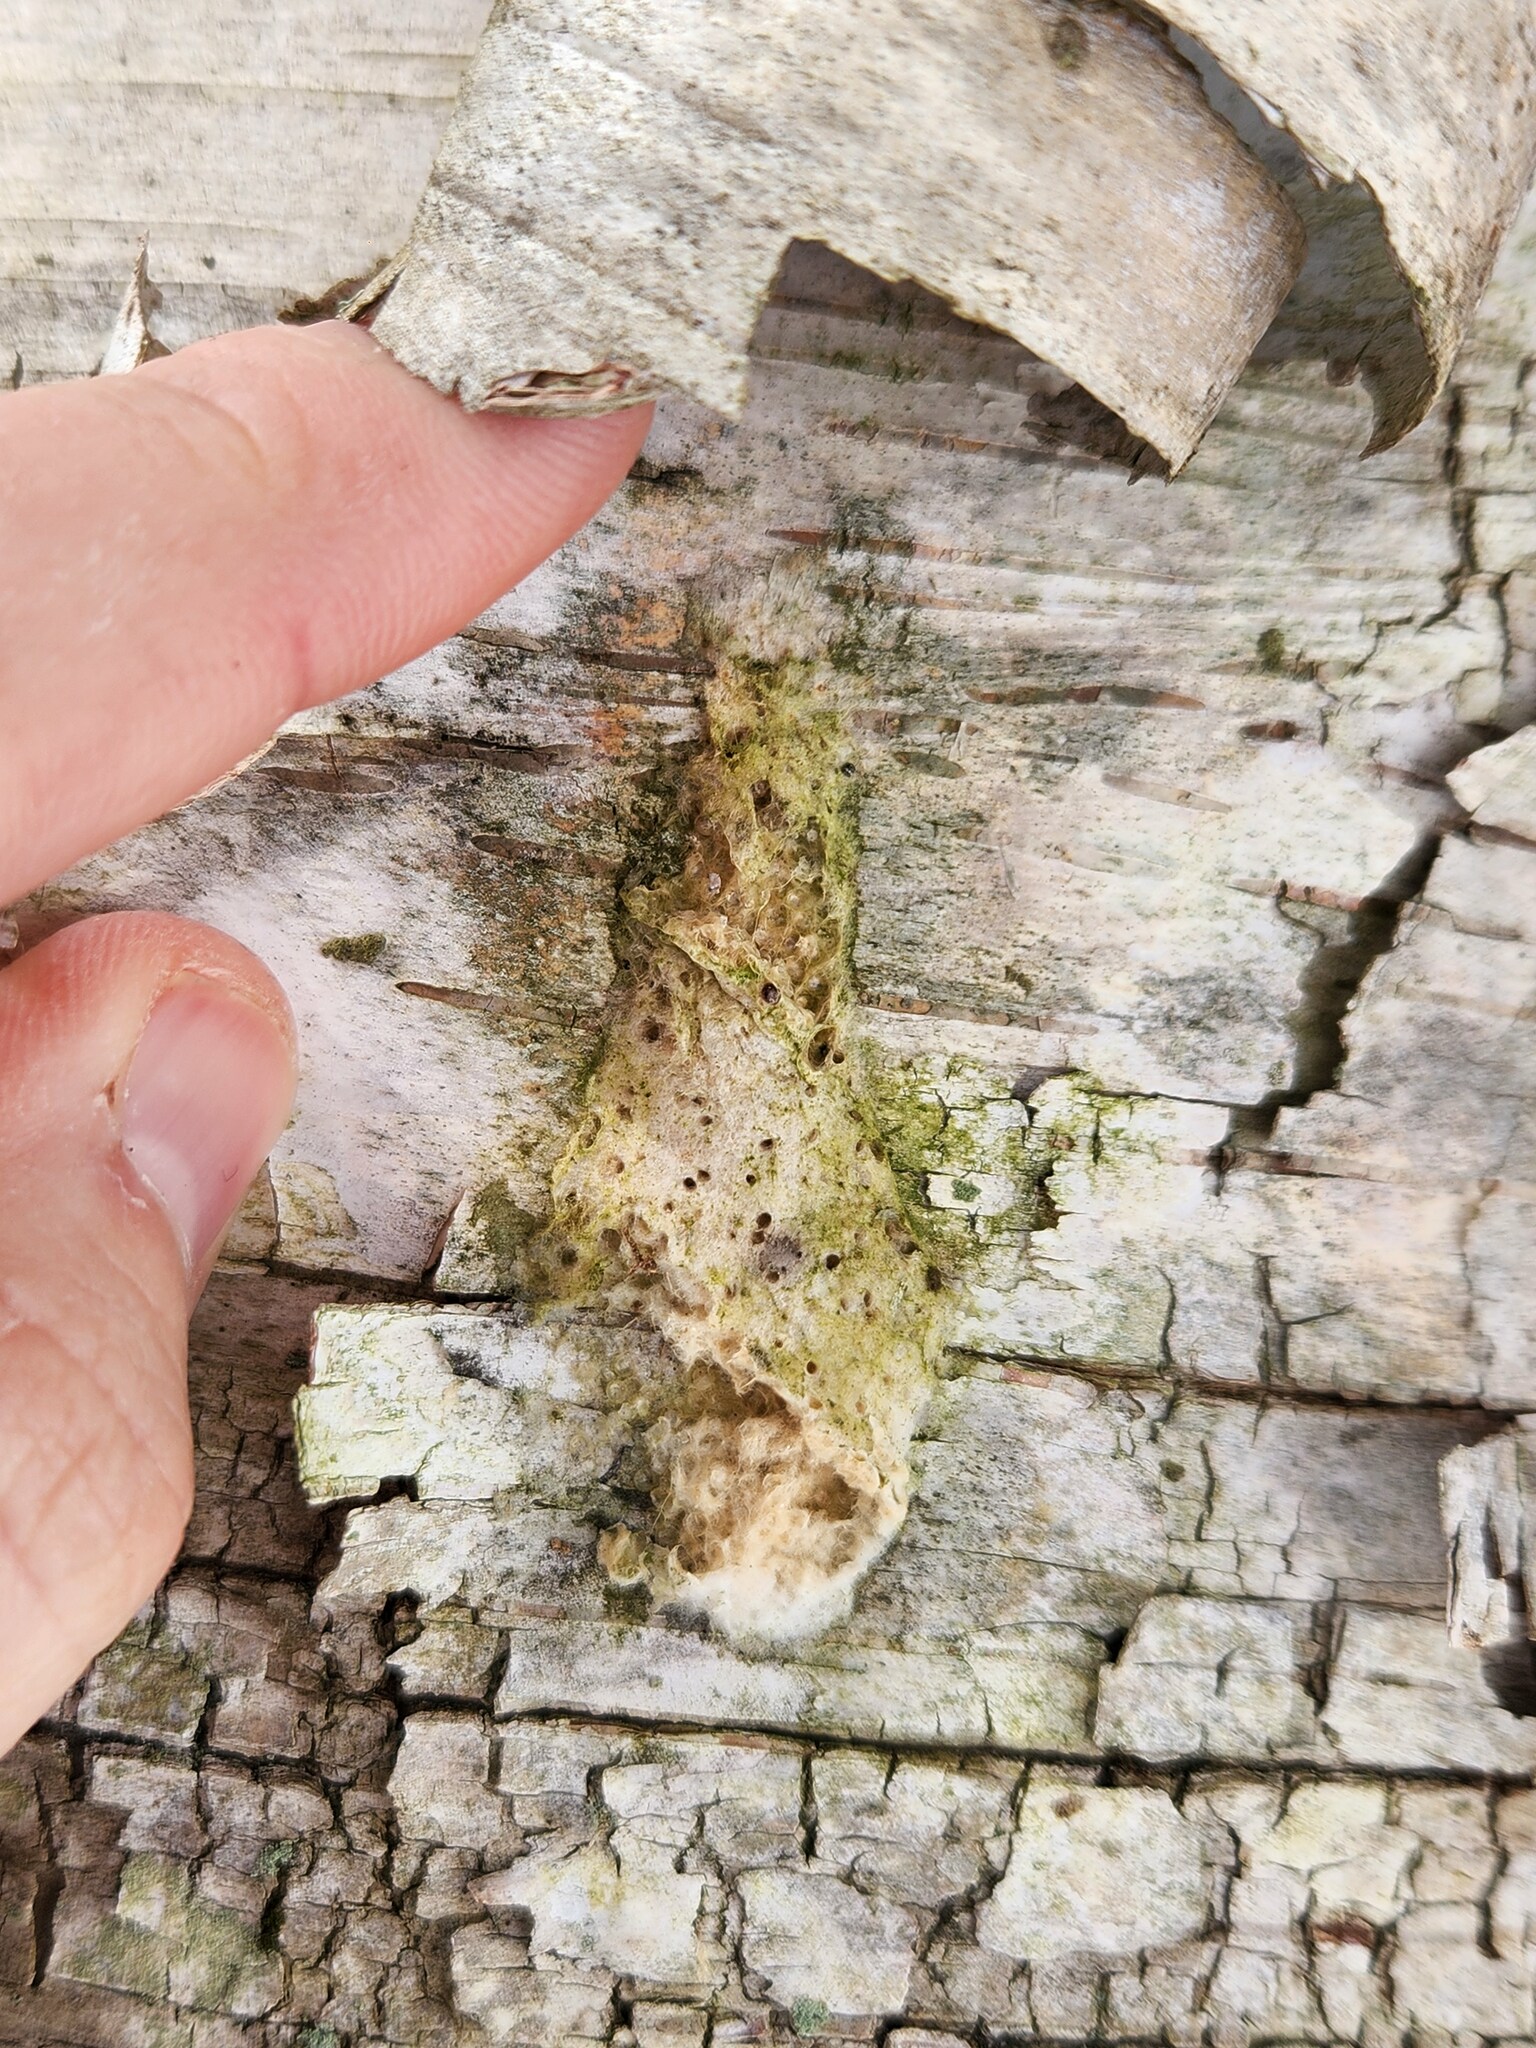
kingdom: Animalia
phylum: Arthropoda
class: Insecta
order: Lepidoptera
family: Erebidae
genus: Lymantria
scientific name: Lymantria dispar
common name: Gypsy moth
